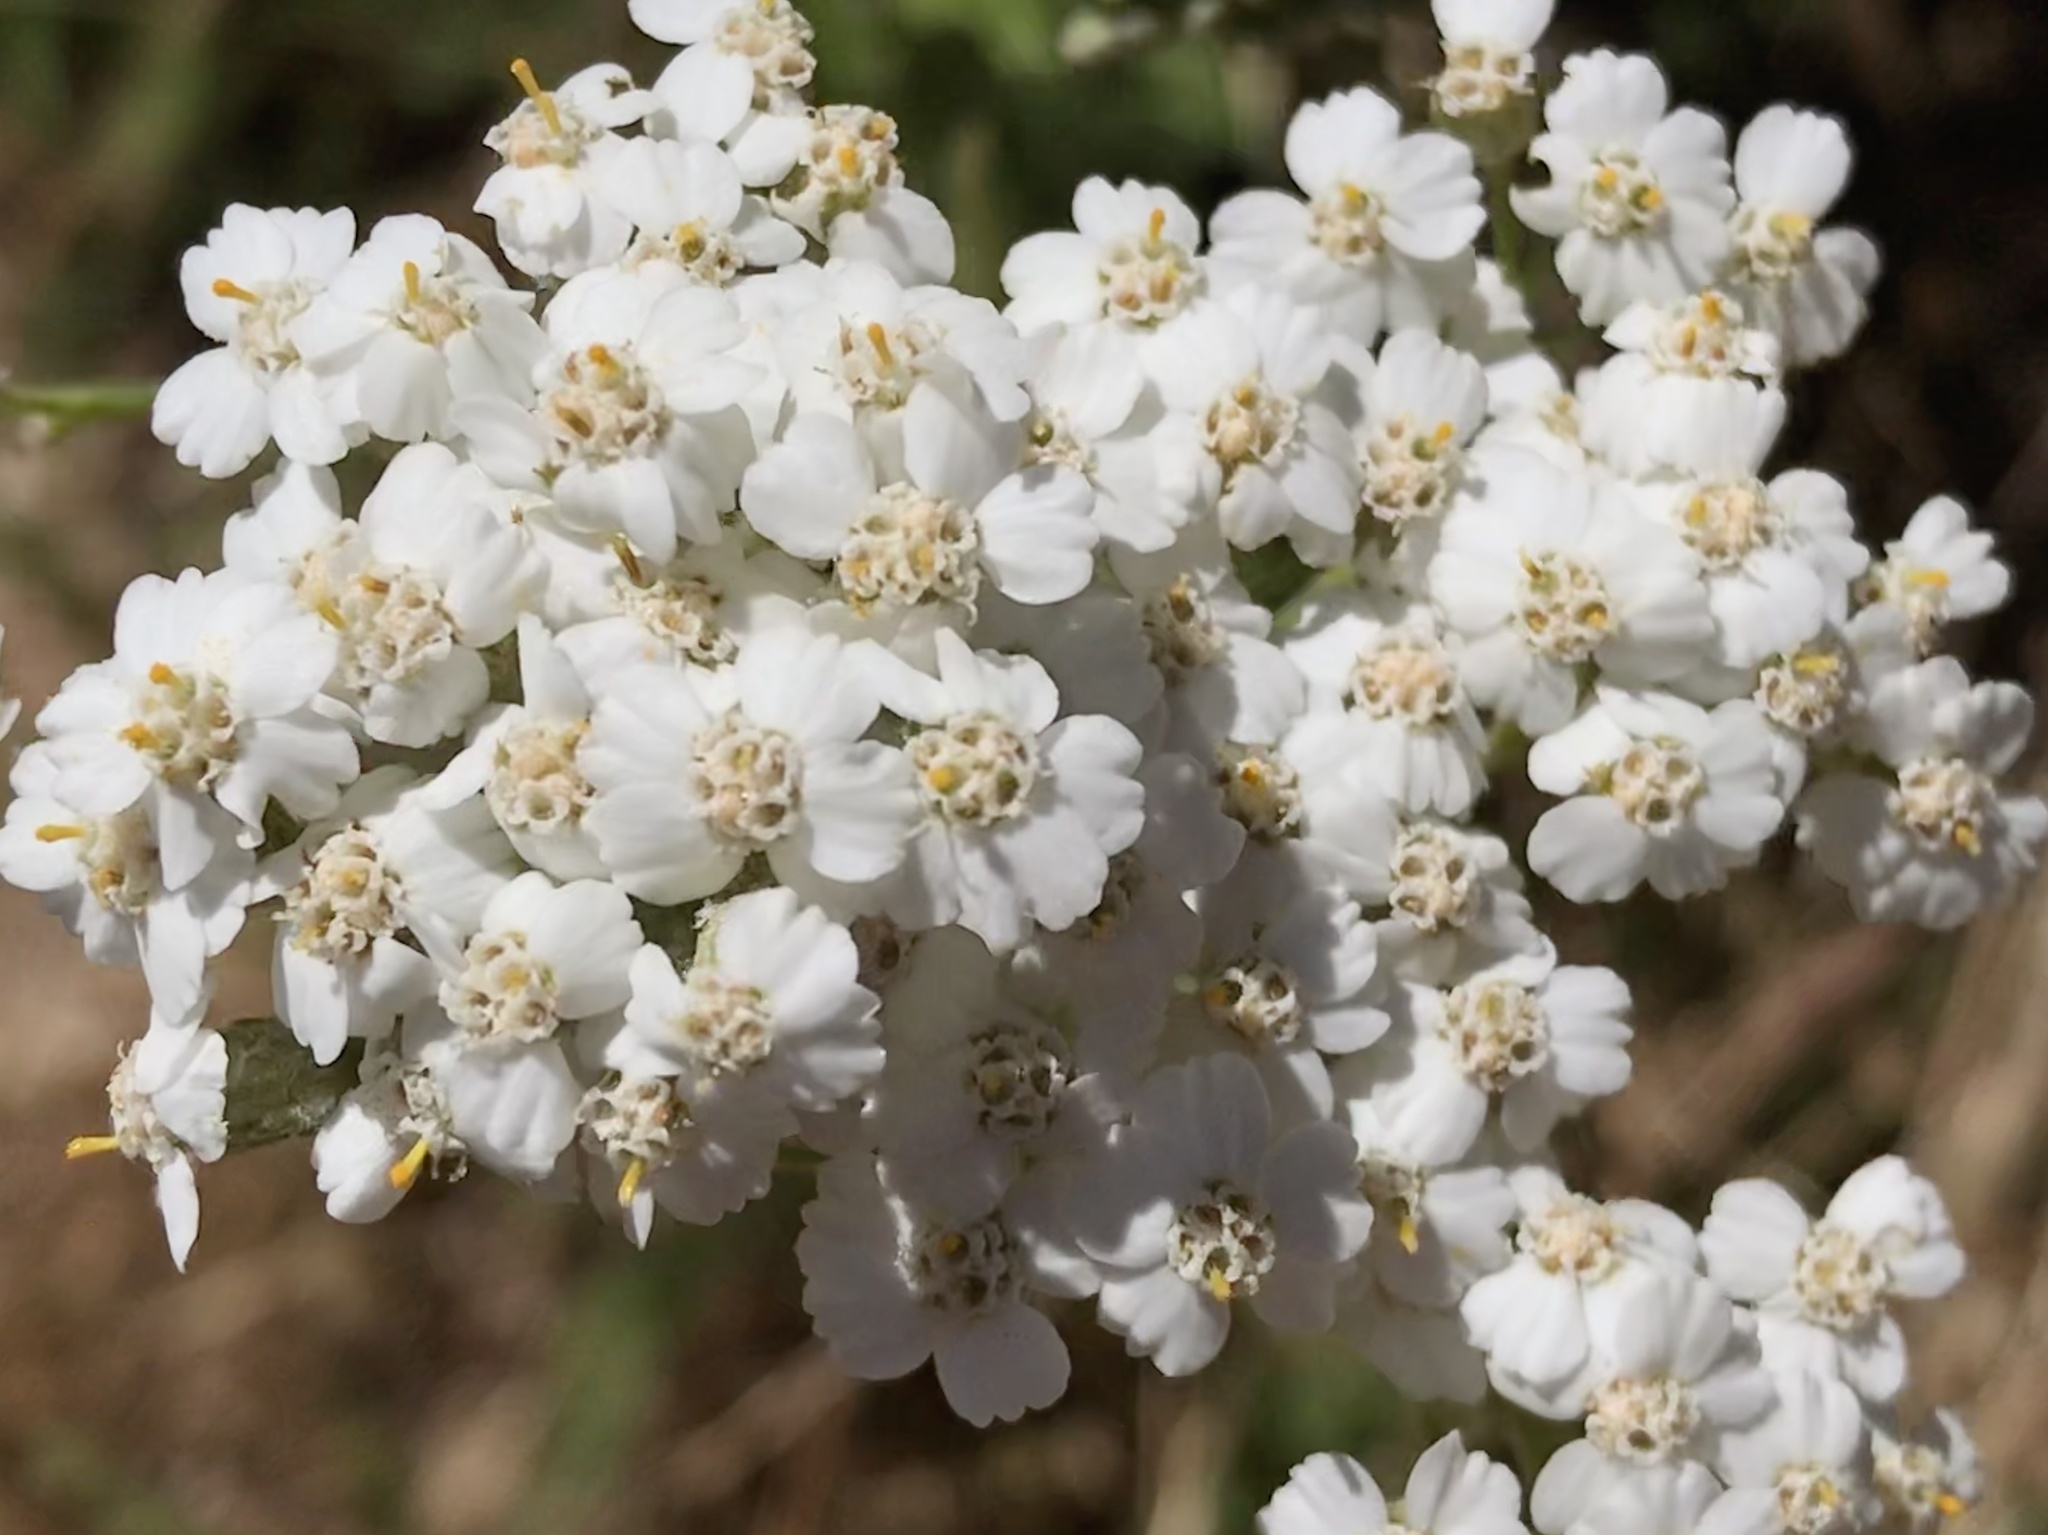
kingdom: Plantae
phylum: Tracheophyta
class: Magnoliopsida
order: Asterales
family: Asteraceae
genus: Achillea
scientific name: Achillea millefolium
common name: Yarrow
